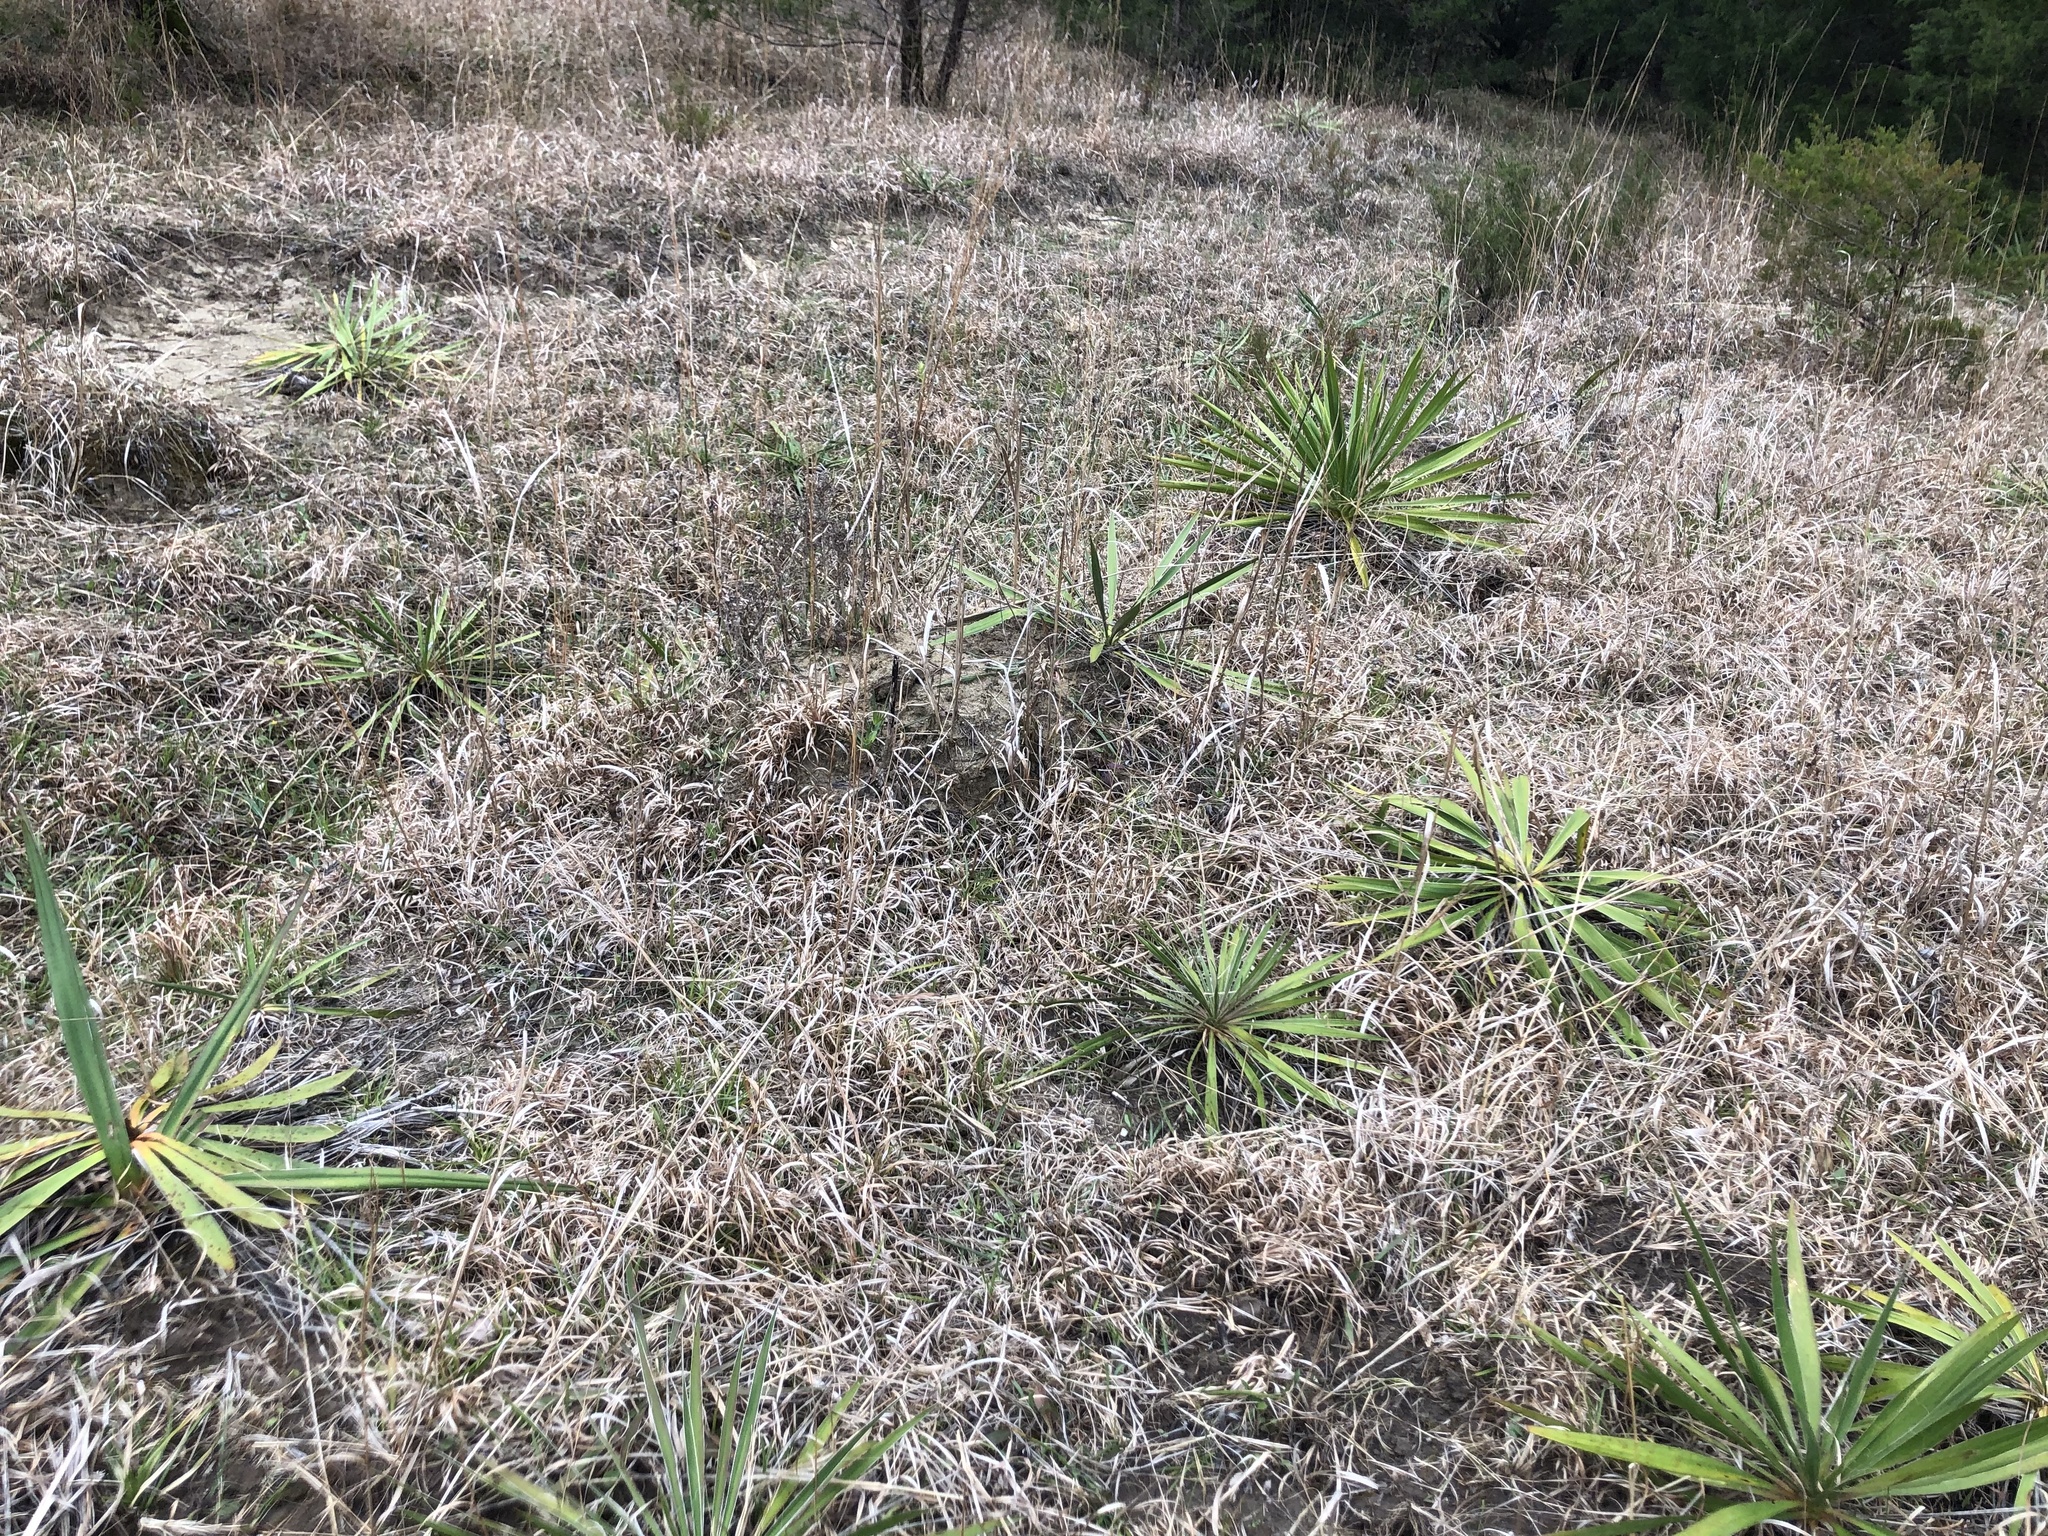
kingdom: Plantae
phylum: Tracheophyta
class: Liliopsida
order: Asparagales
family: Asparagaceae
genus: Yucca
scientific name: Yucca flaccida
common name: Adam's-needle
